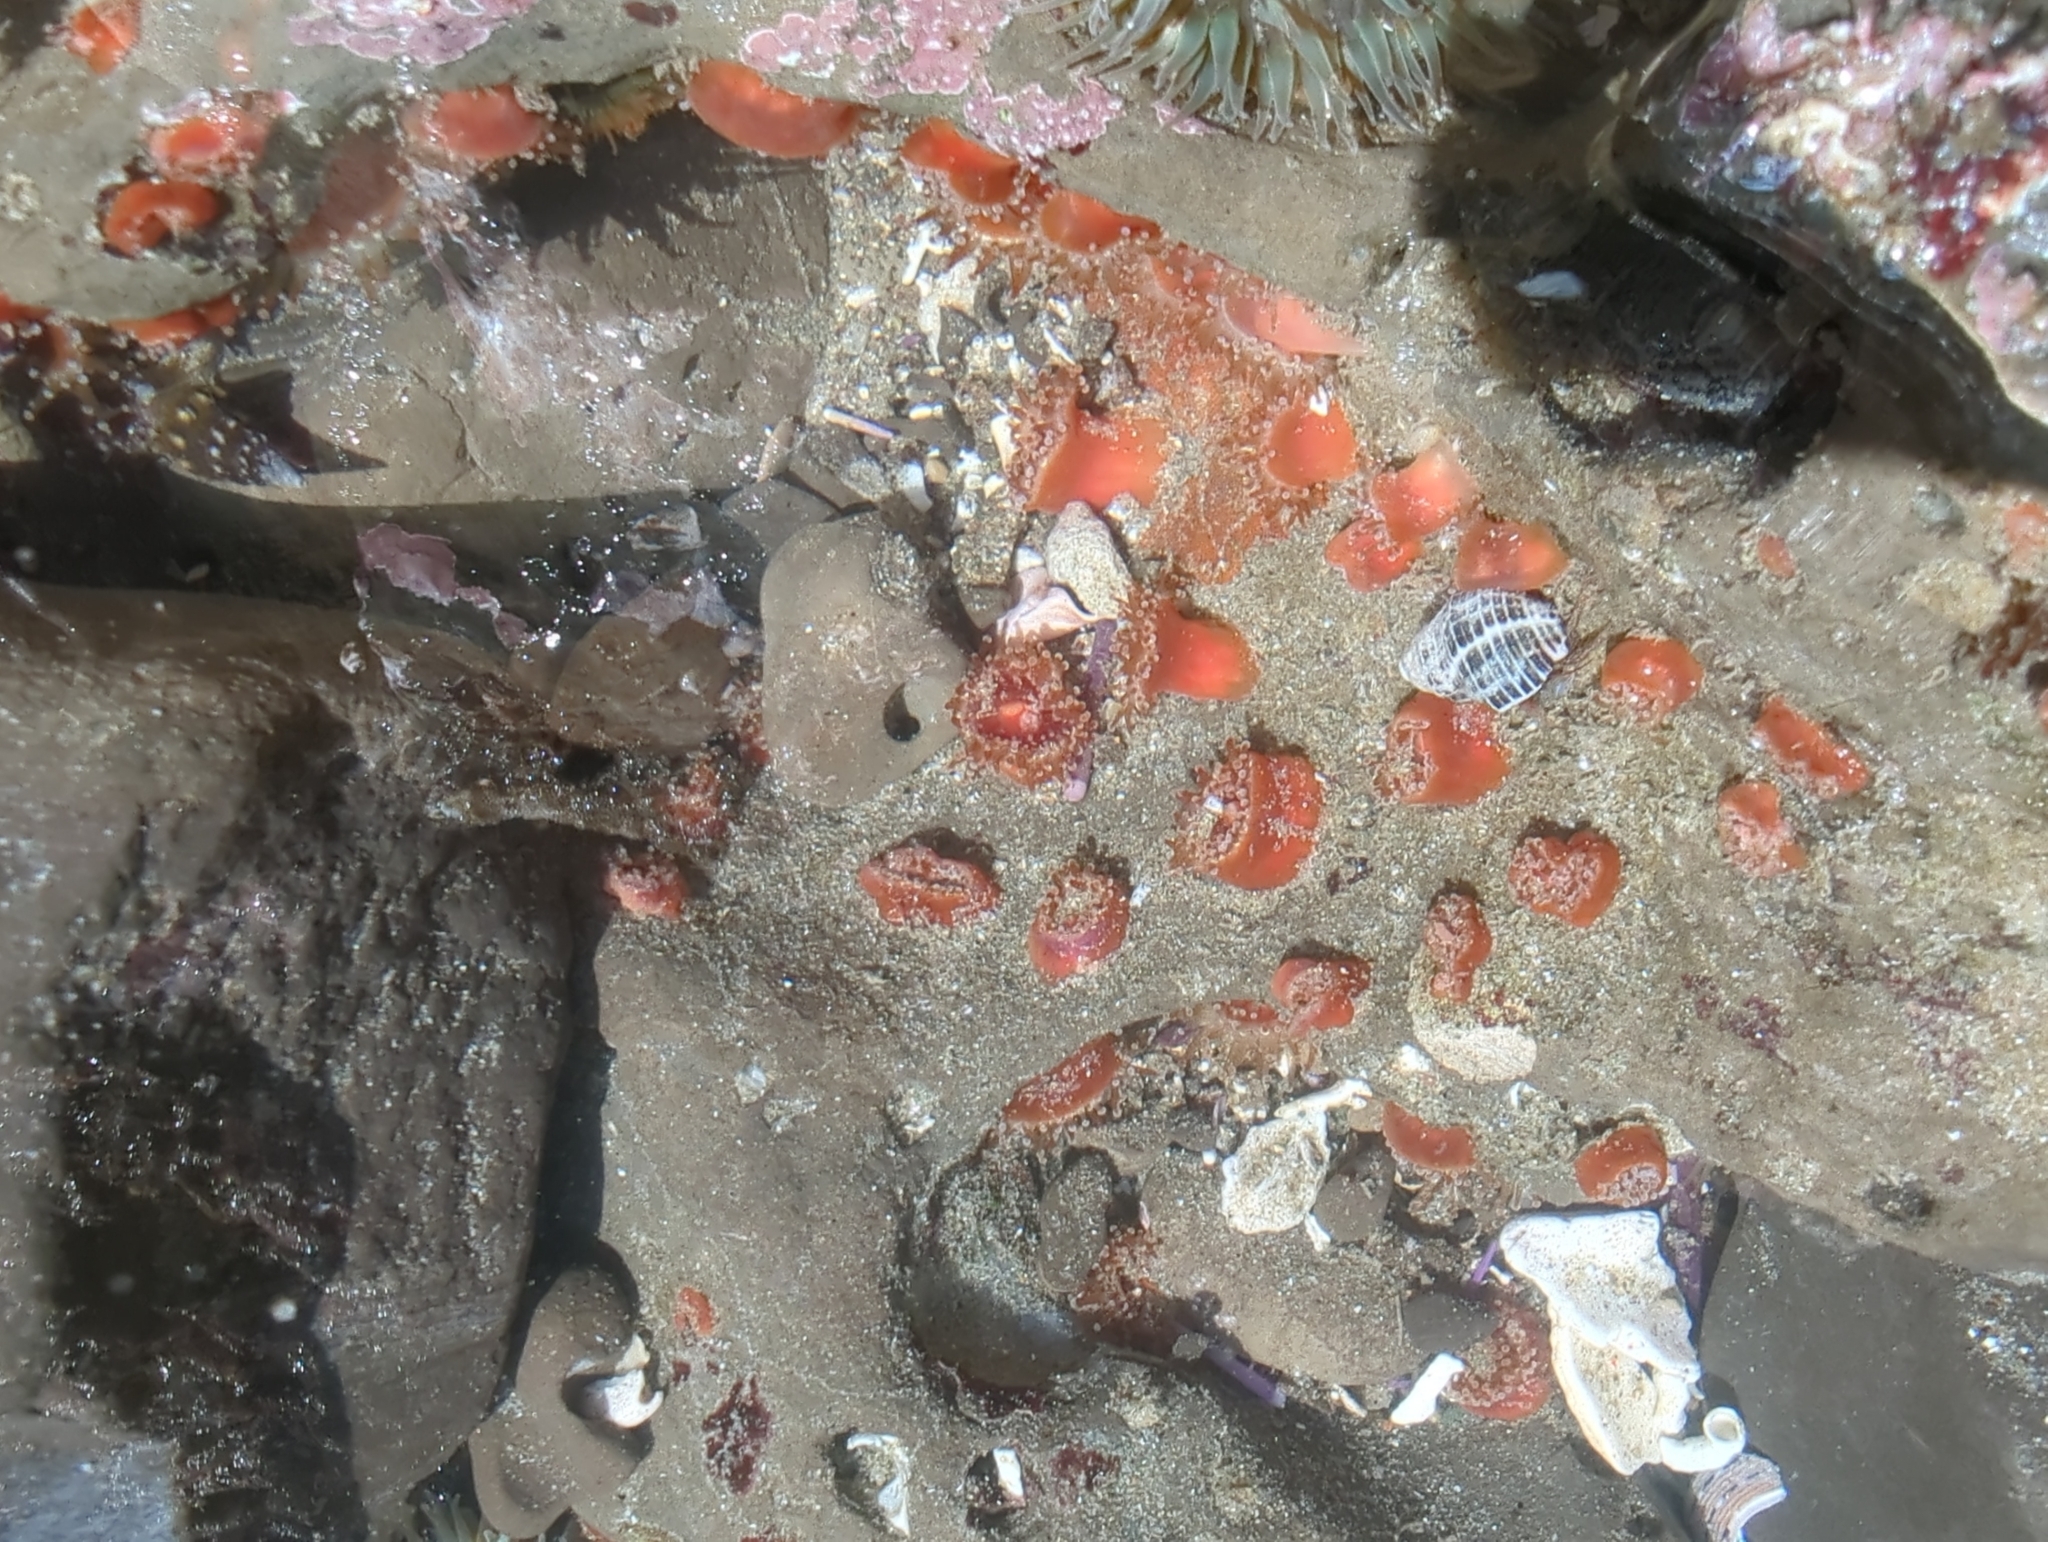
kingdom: Animalia
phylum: Cnidaria
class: Anthozoa
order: Corallimorpharia
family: Corallimorphidae
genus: Corynactis
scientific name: Corynactis californica
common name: Strawberry corallimorpharian
